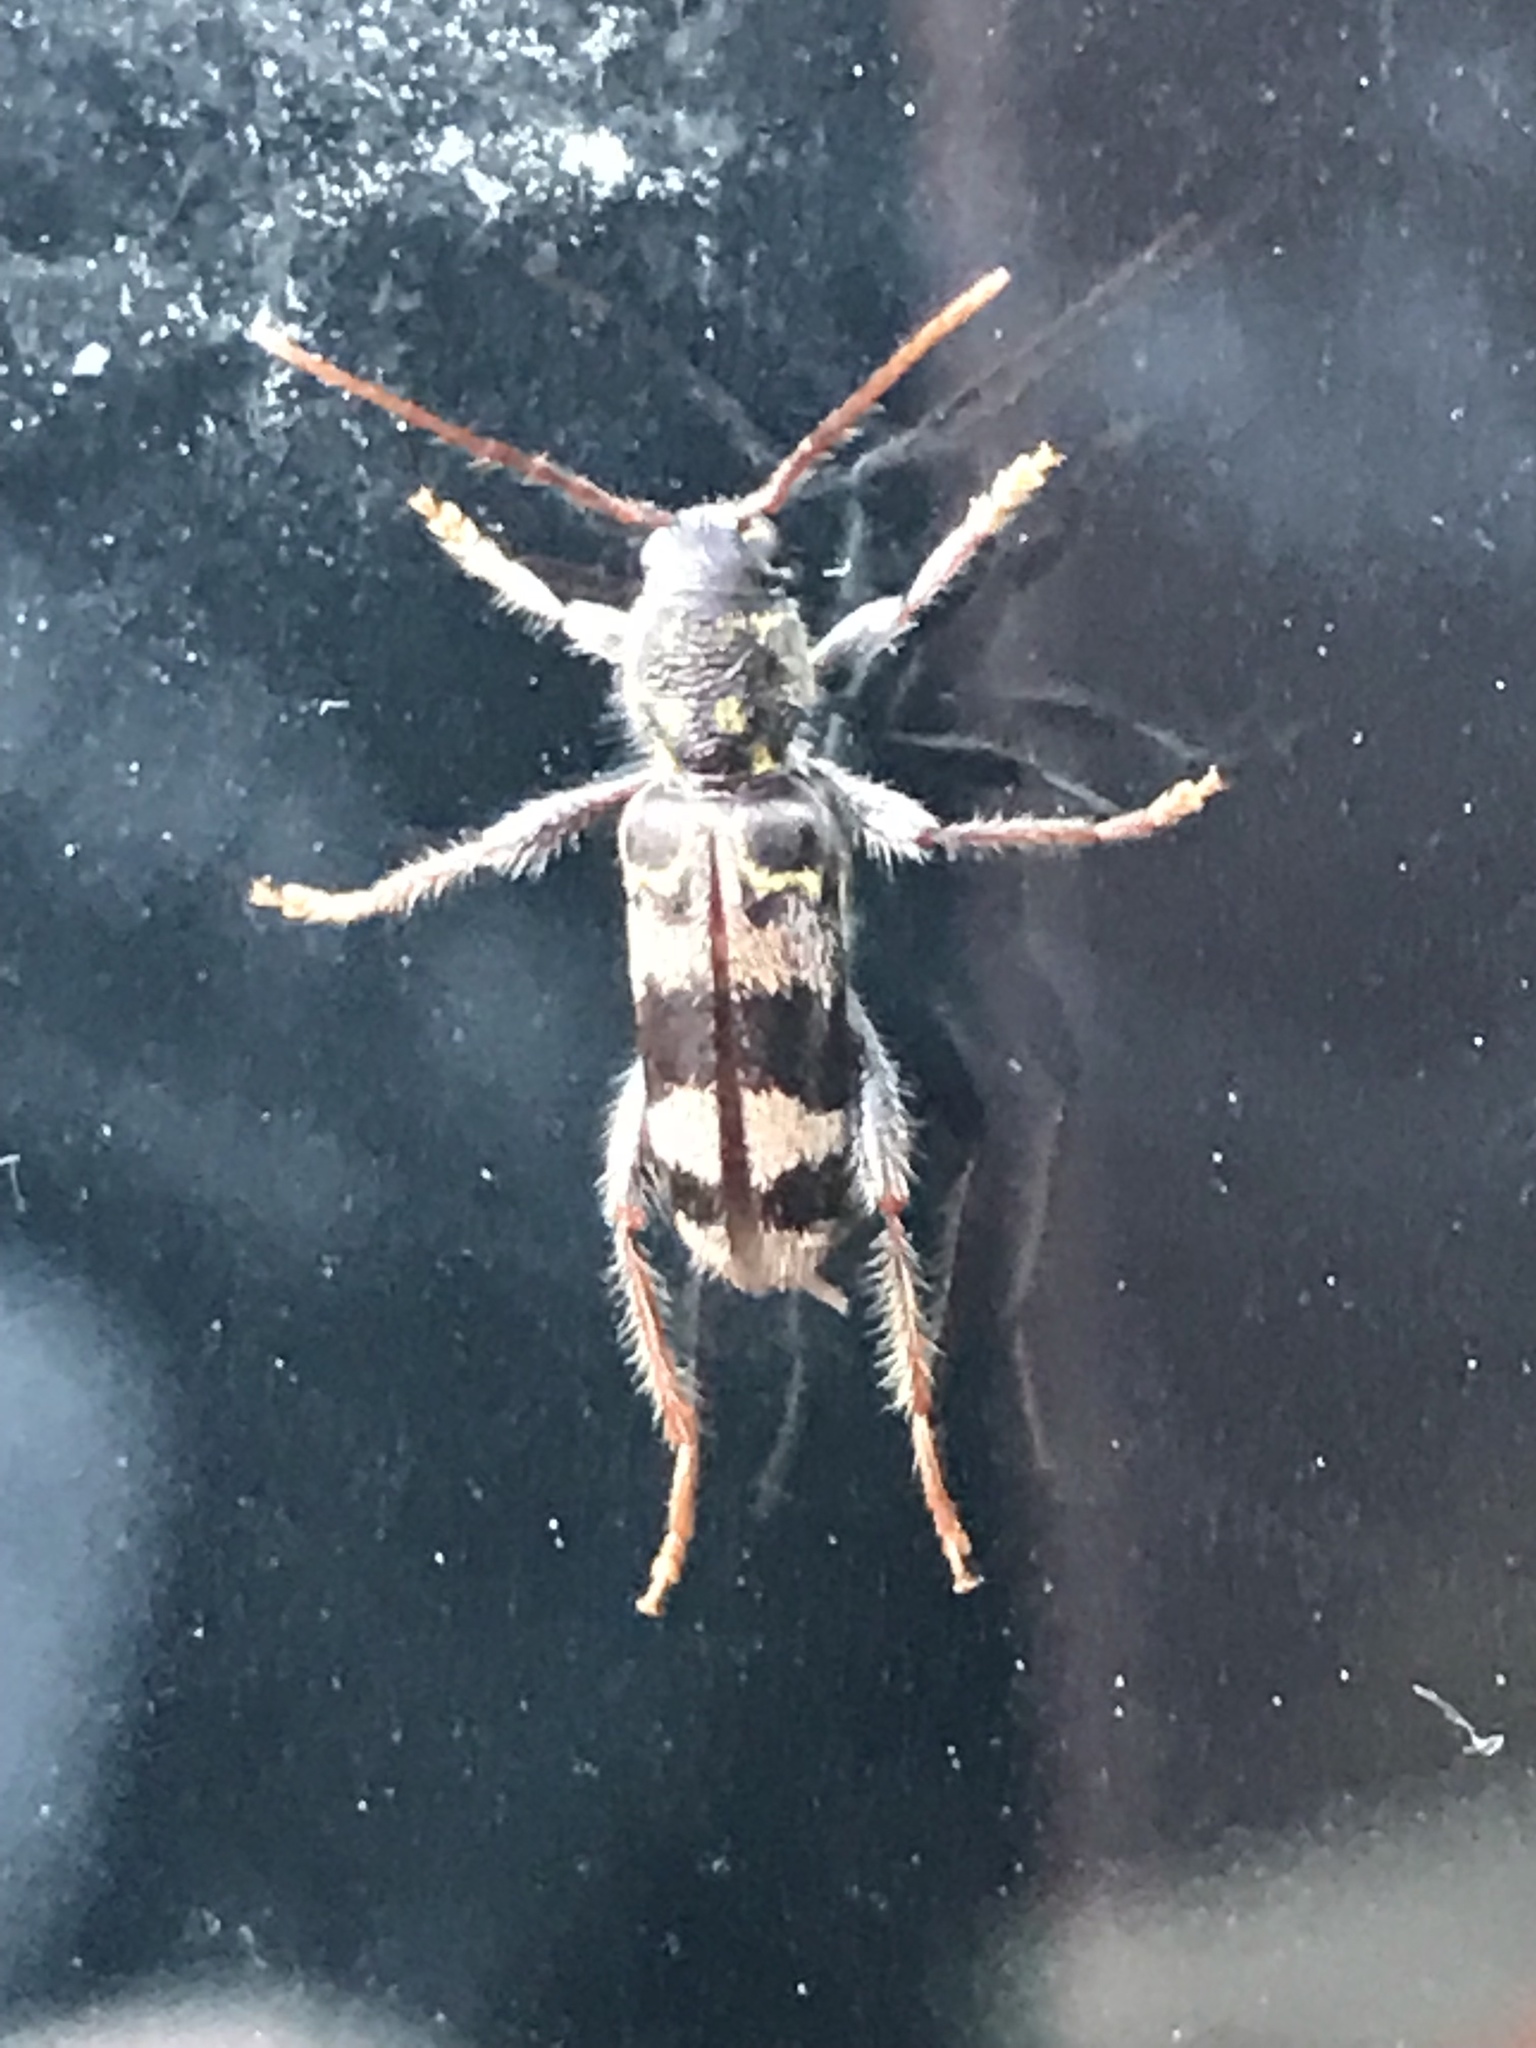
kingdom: Animalia
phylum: Arthropoda
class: Insecta
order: Coleoptera
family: Cerambycidae
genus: Xylotrechus
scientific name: Xylotrechus colonus
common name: Long-horned beetle
